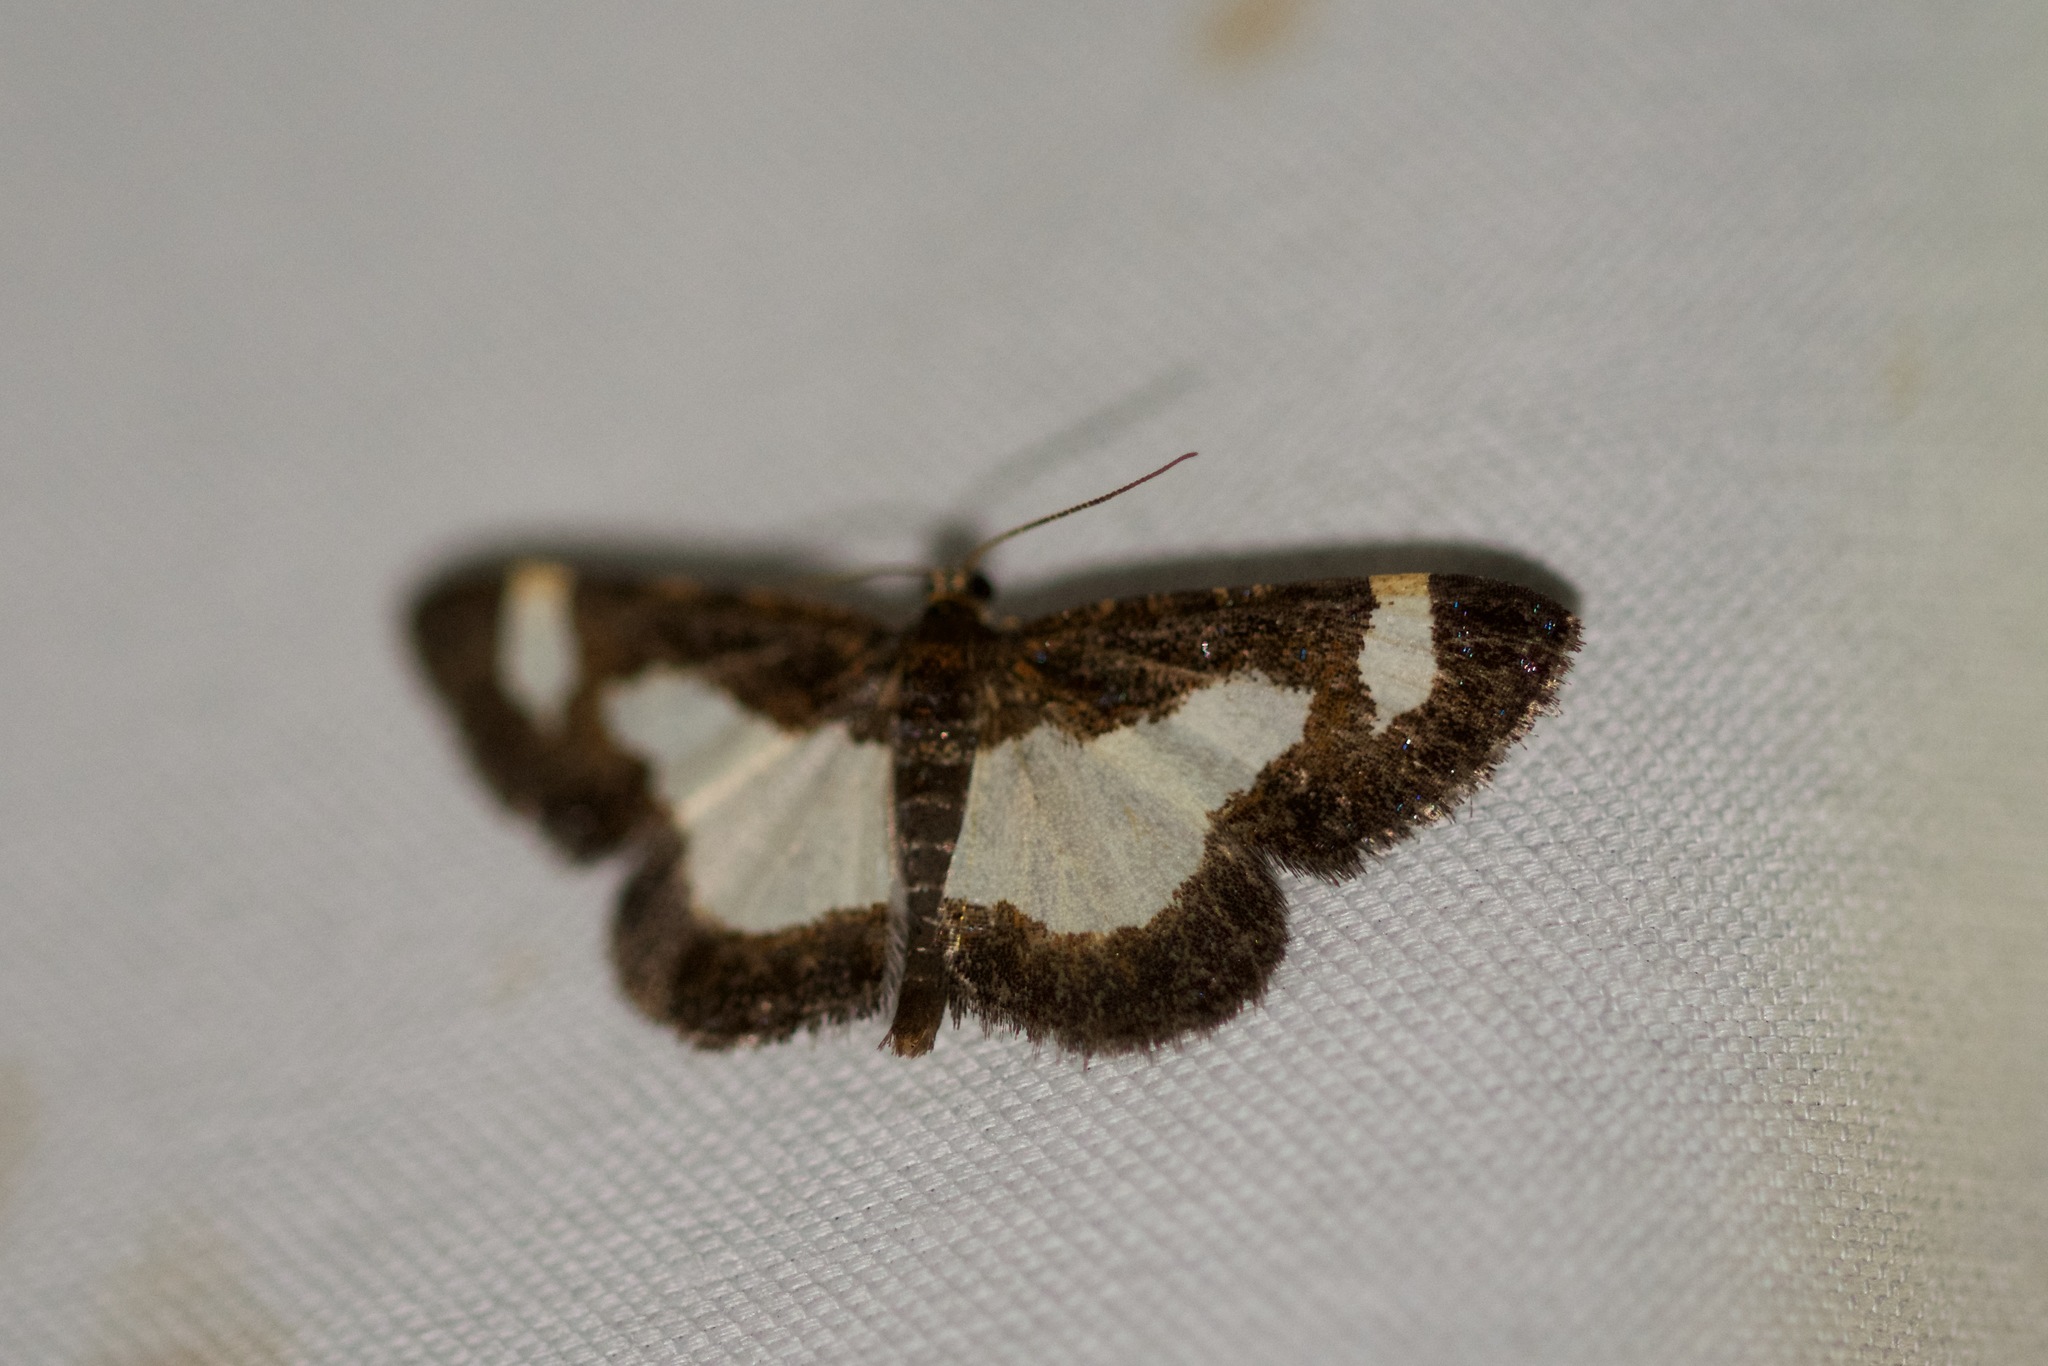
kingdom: Animalia
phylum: Arthropoda
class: Insecta
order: Lepidoptera
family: Geometridae
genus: Heliomata
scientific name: Heliomata cycladata
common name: Common spring moth
